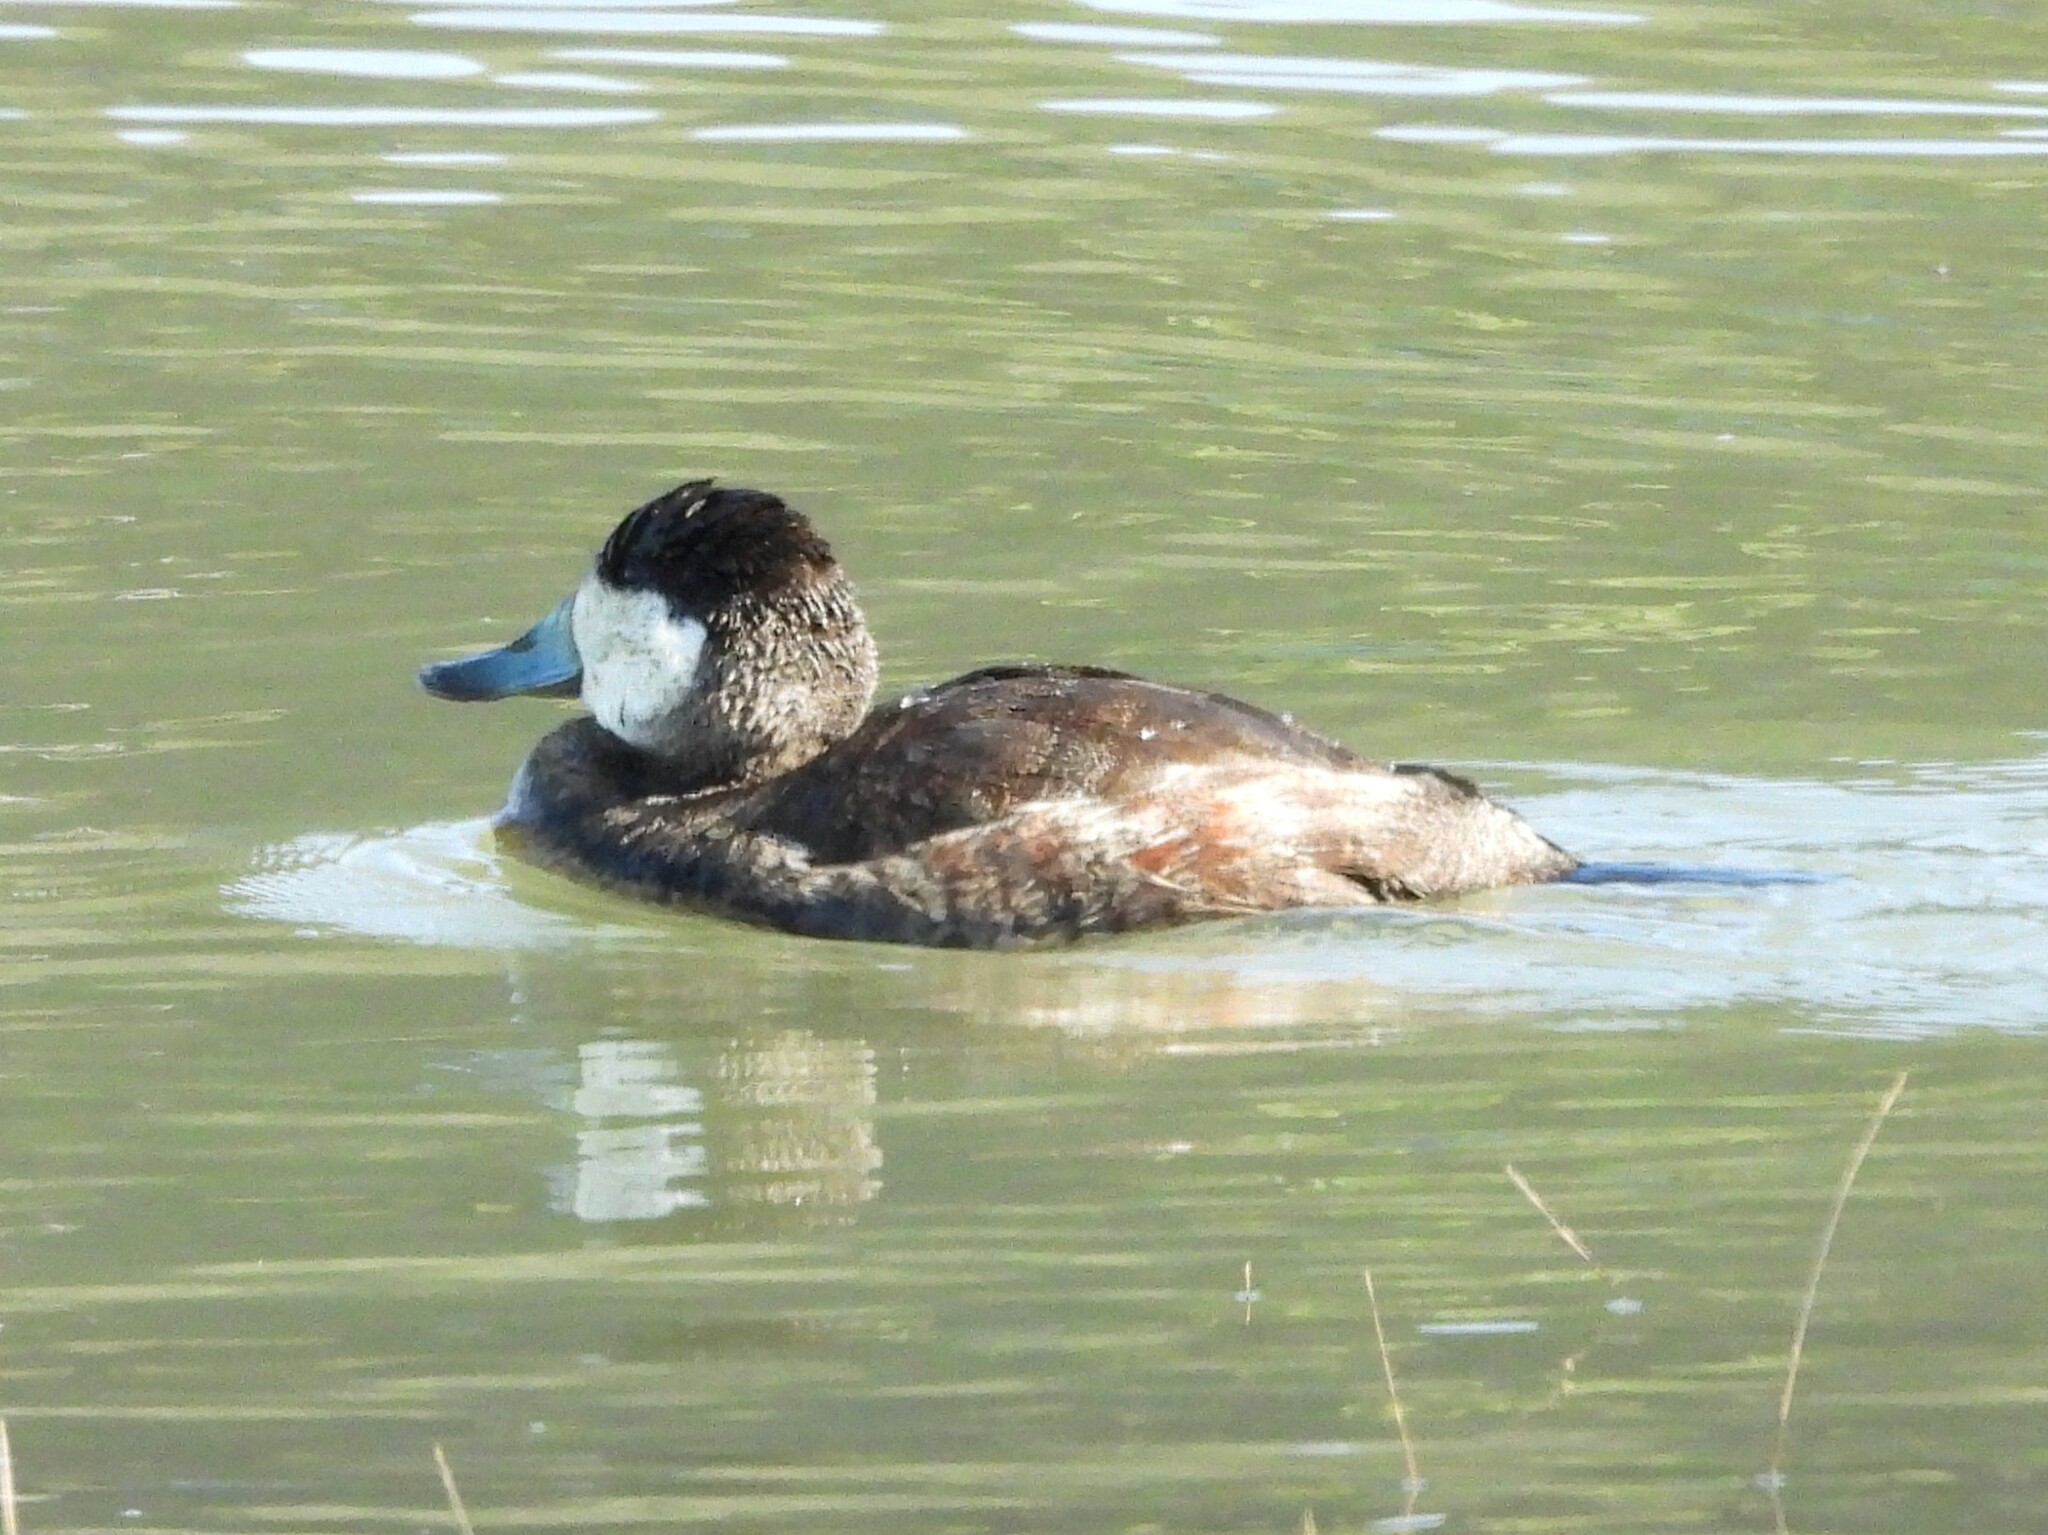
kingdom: Animalia
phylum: Chordata
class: Aves
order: Anseriformes
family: Anatidae
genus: Oxyura
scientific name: Oxyura jamaicensis
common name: Ruddy duck
